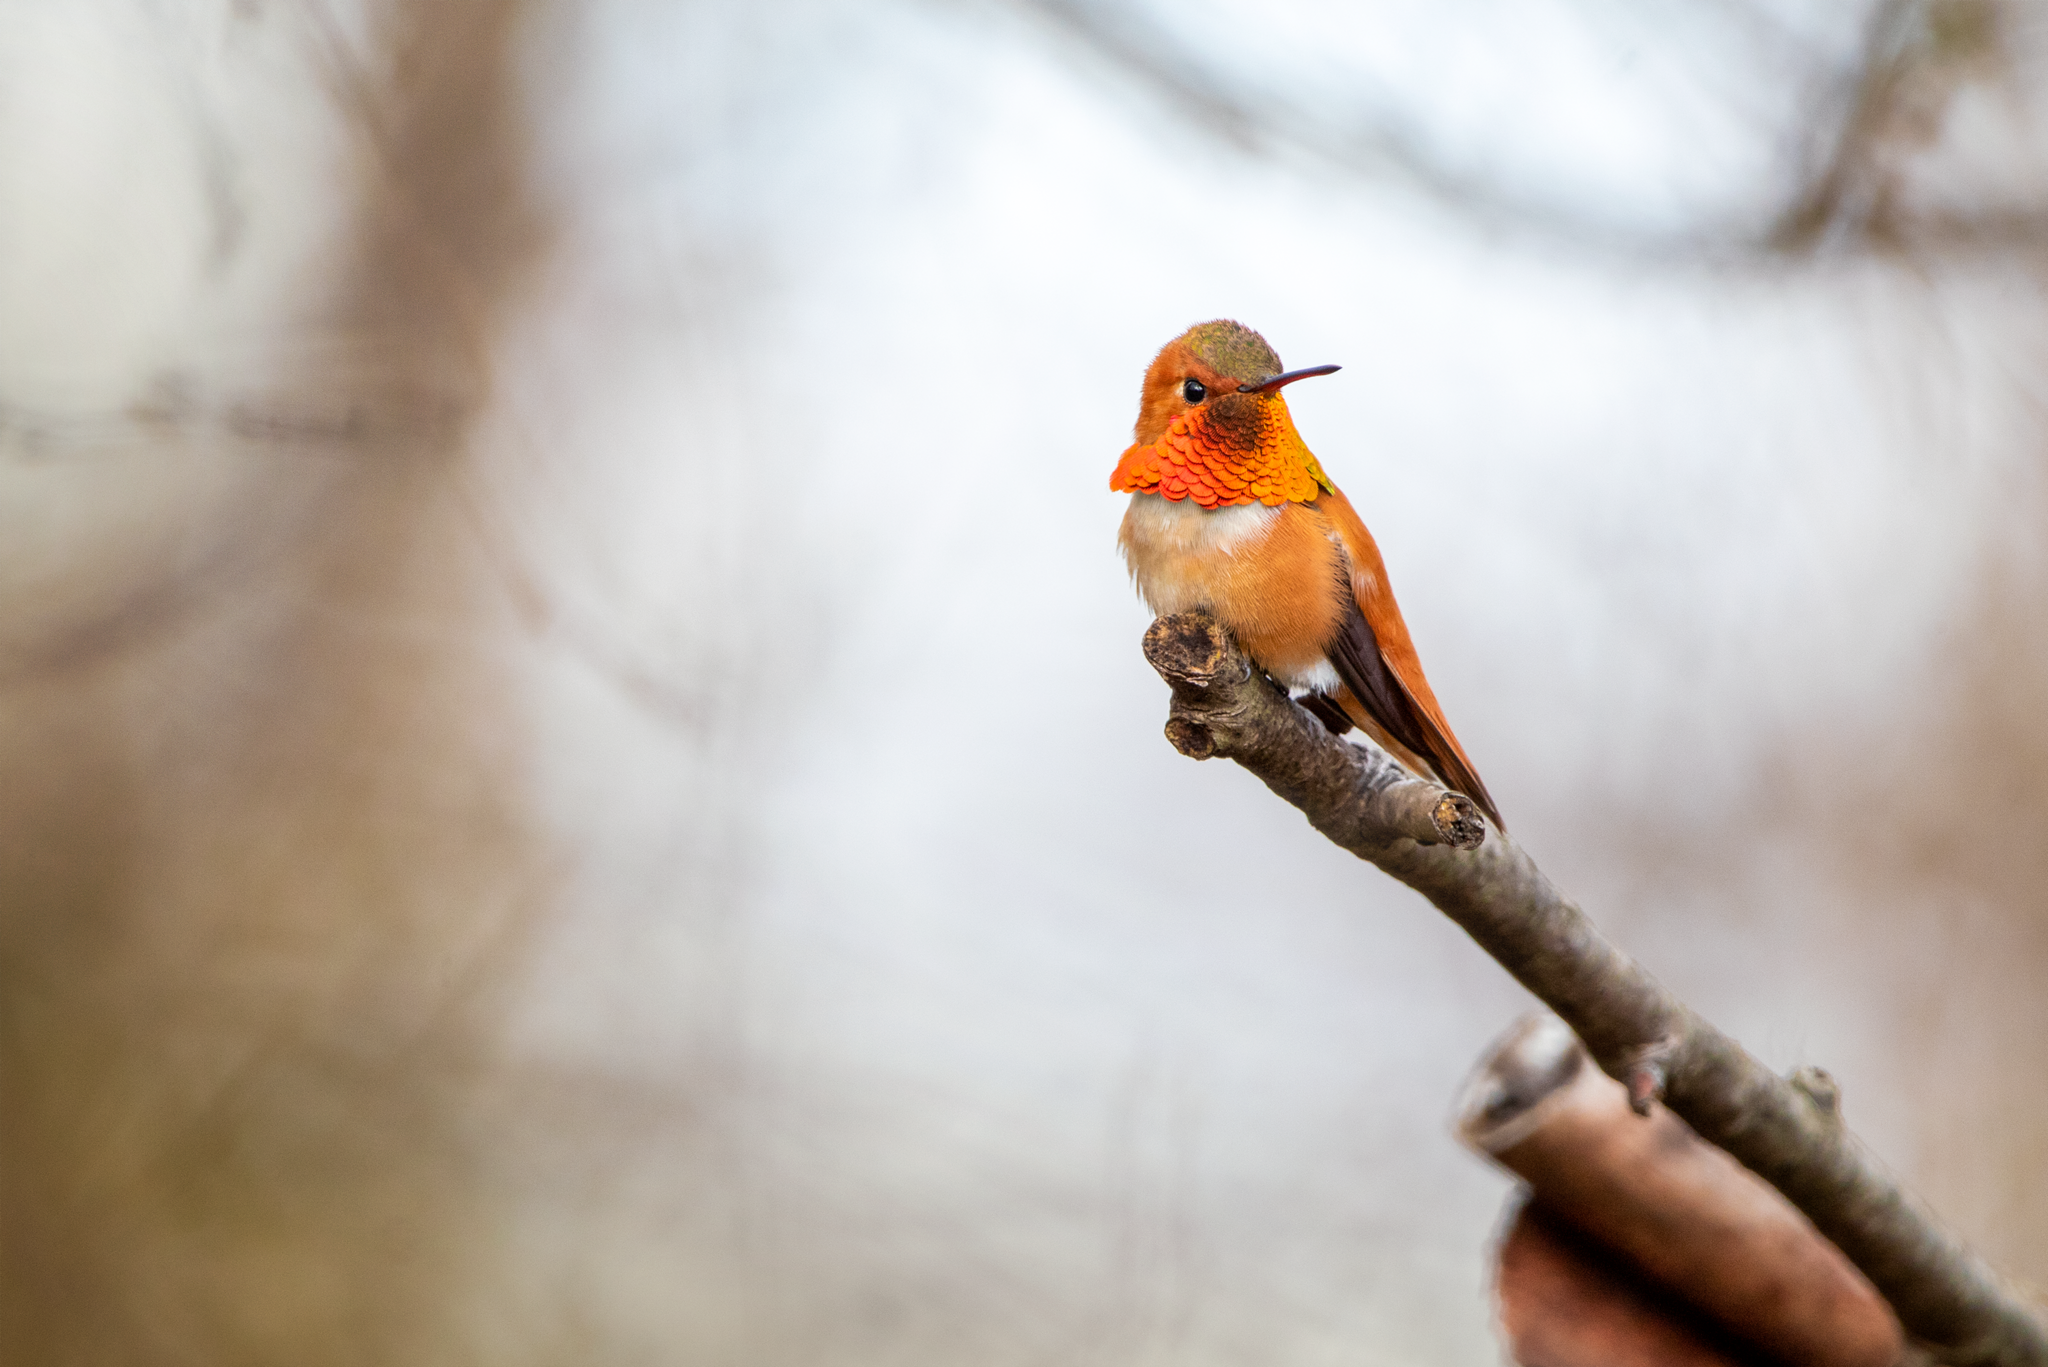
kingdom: Animalia
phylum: Chordata
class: Aves
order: Apodiformes
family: Trochilidae
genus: Selasphorus
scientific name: Selasphorus rufus
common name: Rufous hummingbird
